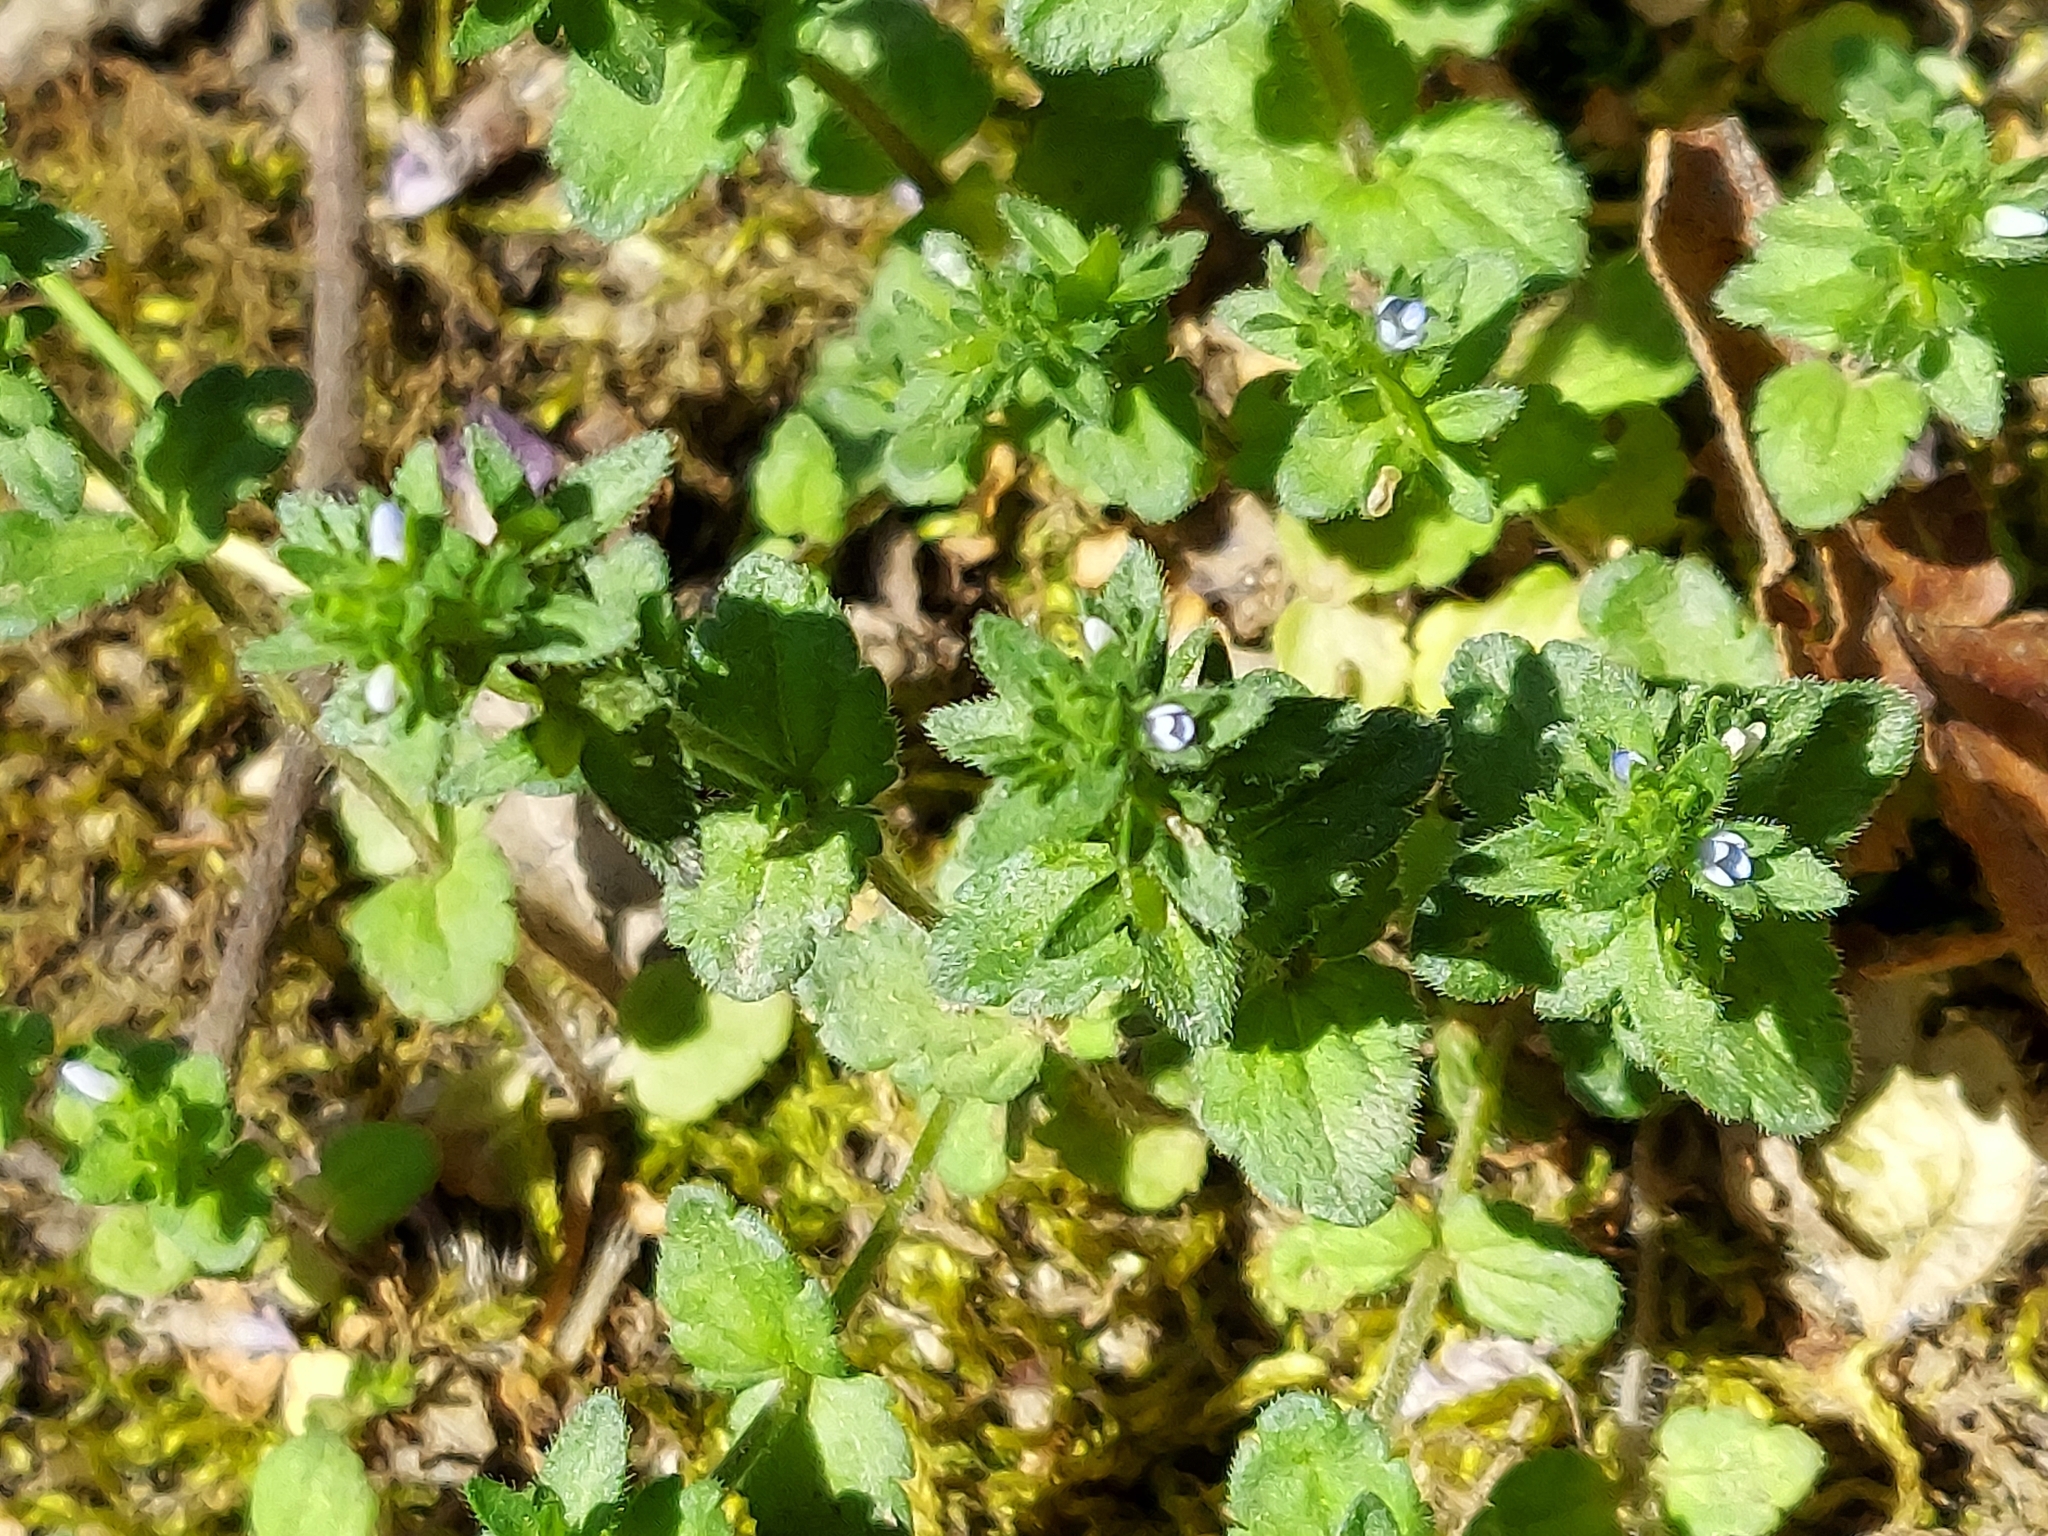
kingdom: Plantae
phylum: Tracheophyta
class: Magnoliopsida
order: Lamiales
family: Plantaginaceae
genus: Veronica
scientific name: Veronica arvensis
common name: Corn speedwell
